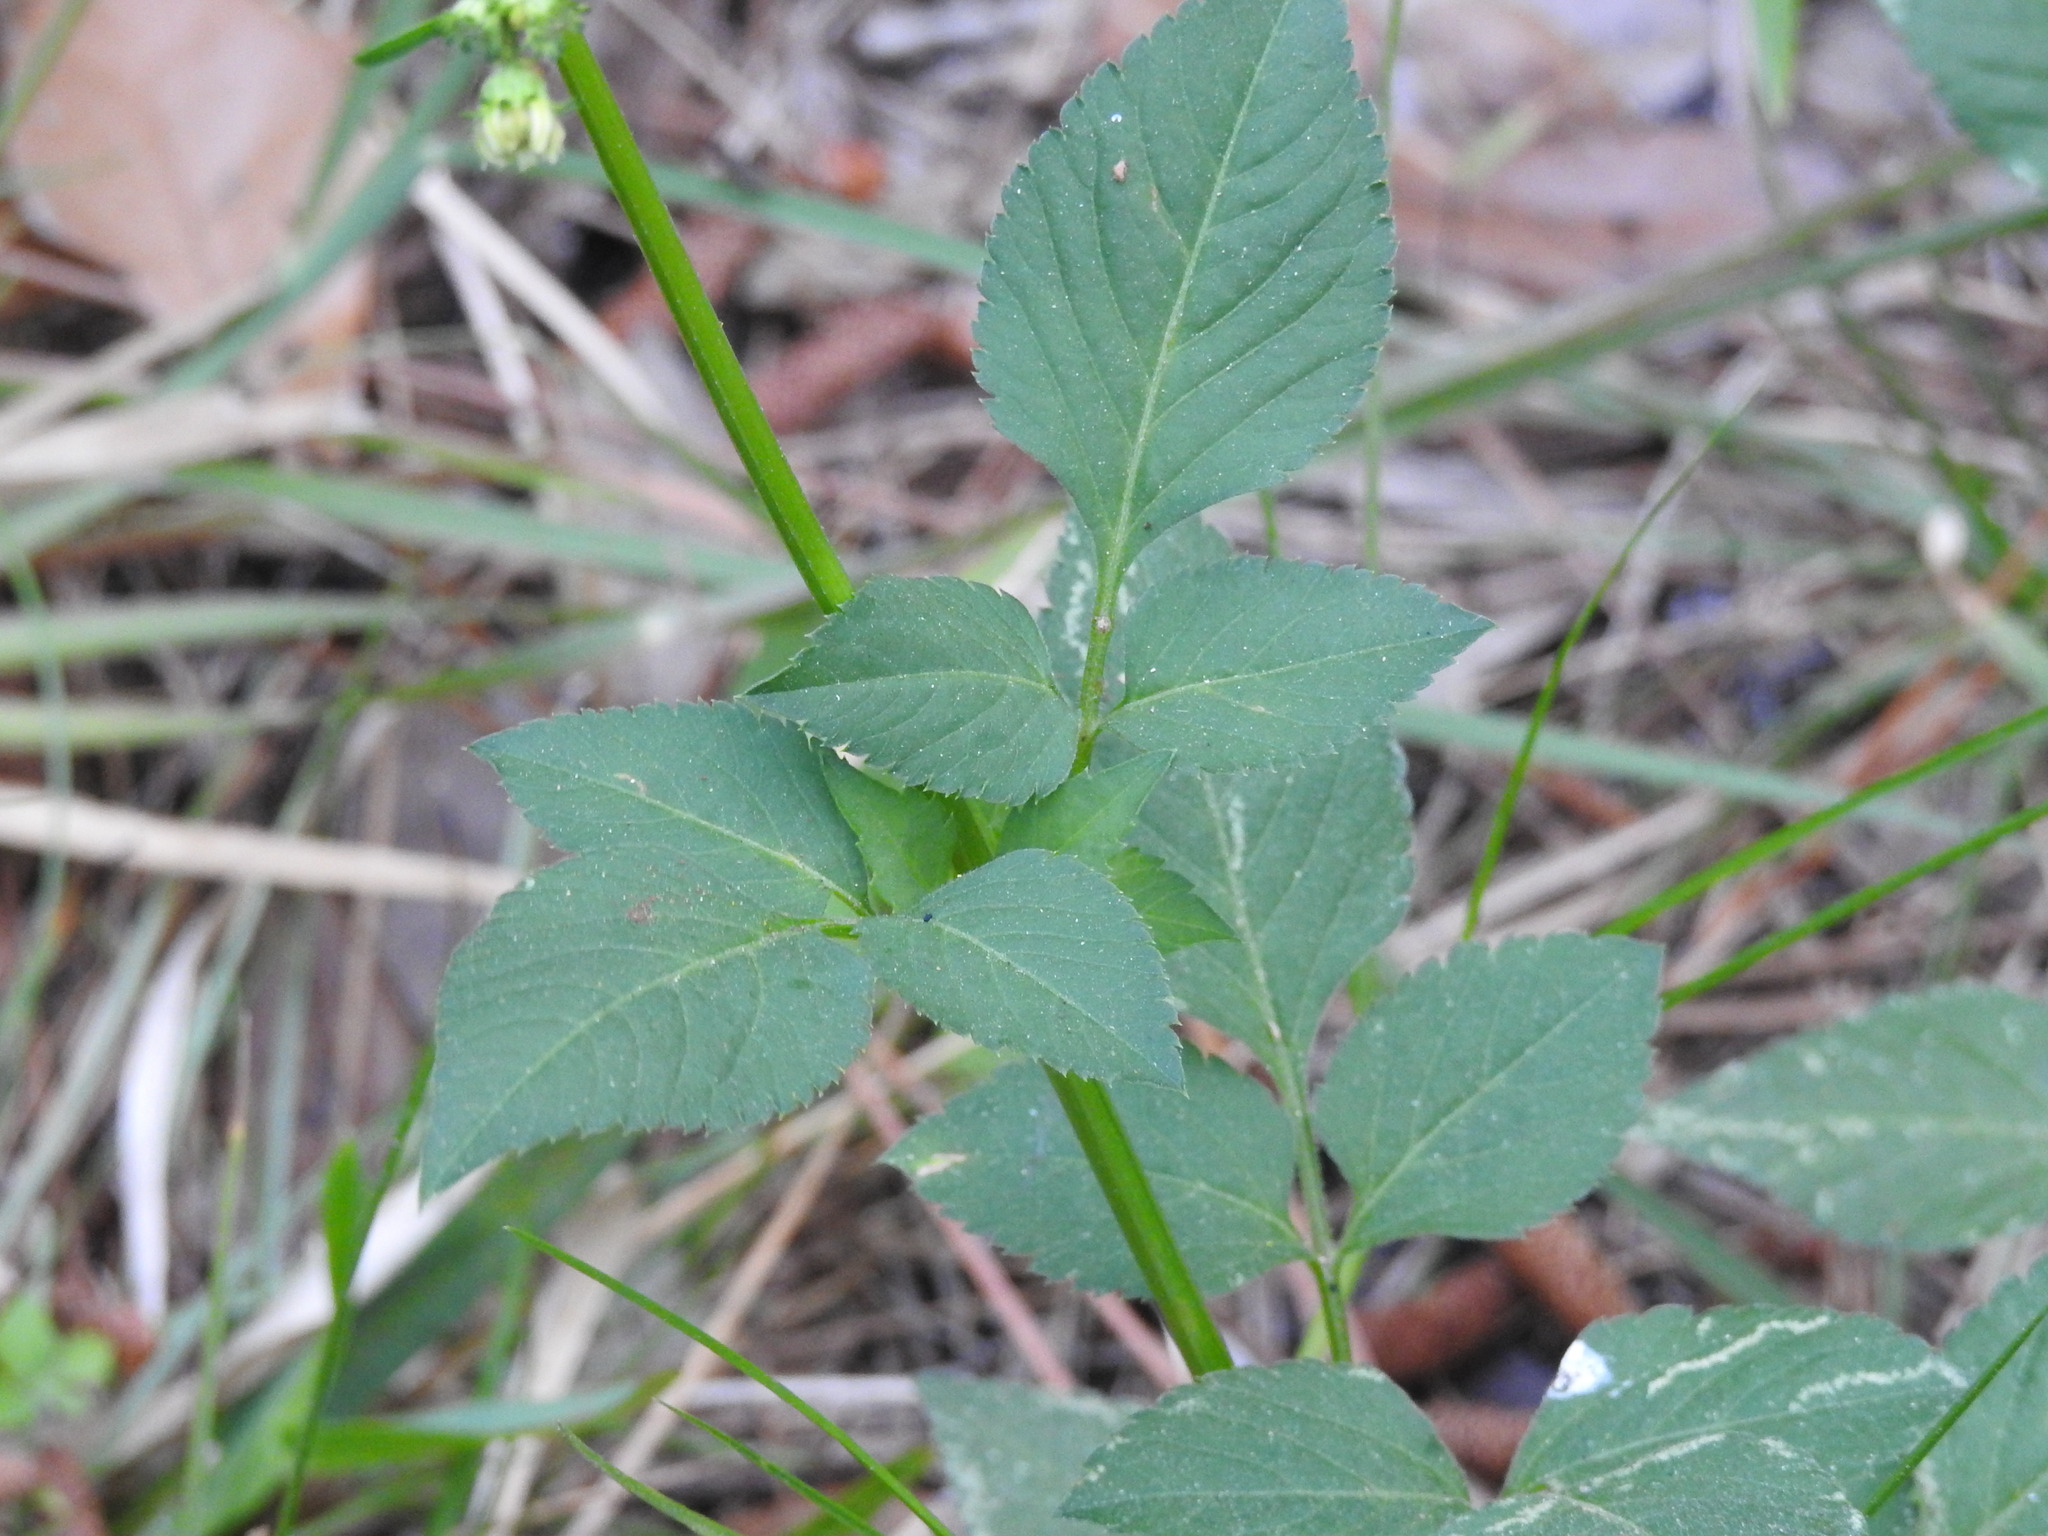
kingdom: Plantae
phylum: Tracheophyta
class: Magnoliopsida
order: Asterales
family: Asteraceae
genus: Bidens
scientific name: Bidens alba
